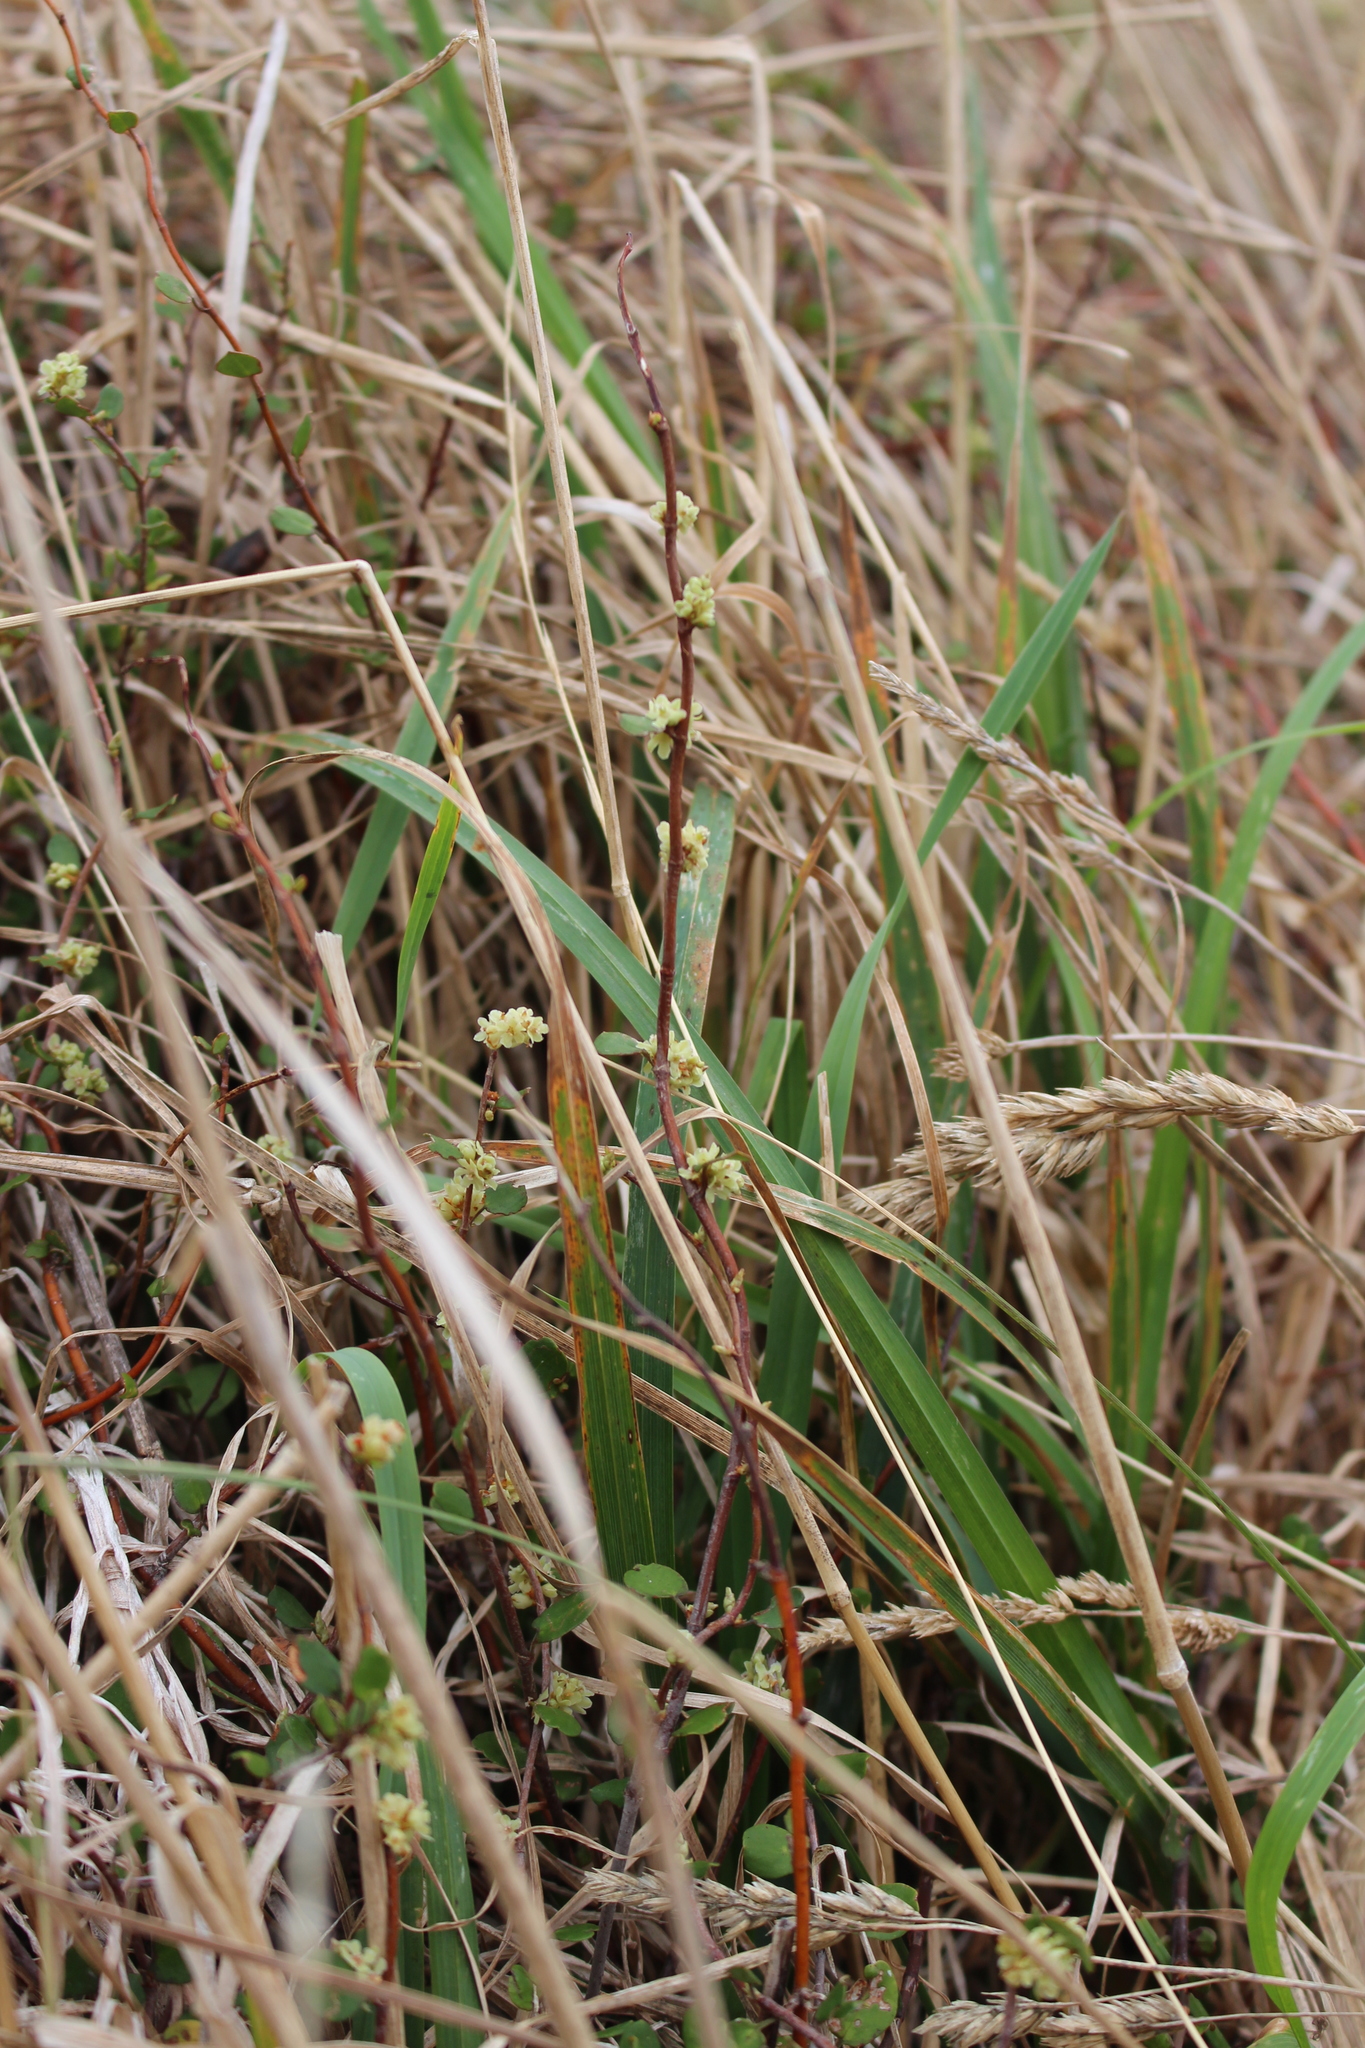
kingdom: Plantae
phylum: Tracheophyta
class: Magnoliopsida
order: Caryophyllales
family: Polygonaceae
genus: Muehlenbeckia
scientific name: Muehlenbeckia complexa
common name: Wireplant
